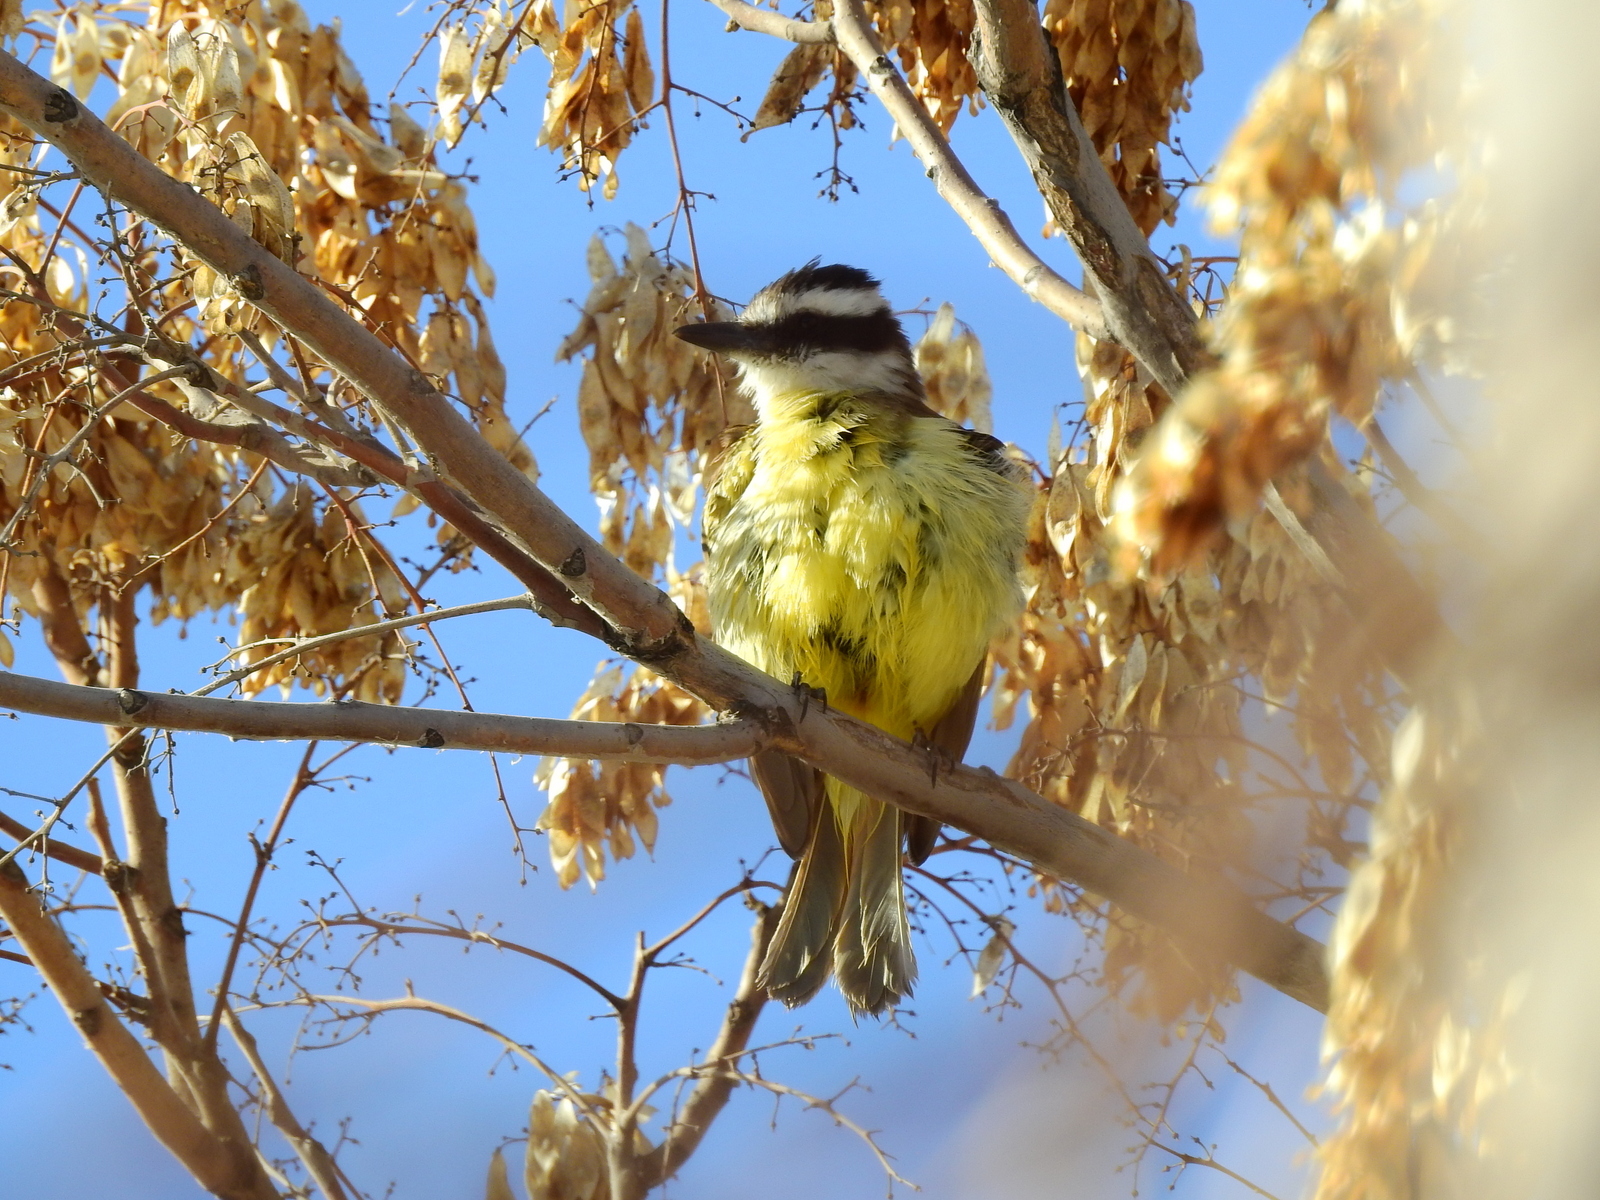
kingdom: Animalia
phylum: Chordata
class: Aves
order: Passeriformes
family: Tyrannidae
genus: Pitangus
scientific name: Pitangus sulphuratus
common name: Great kiskadee
